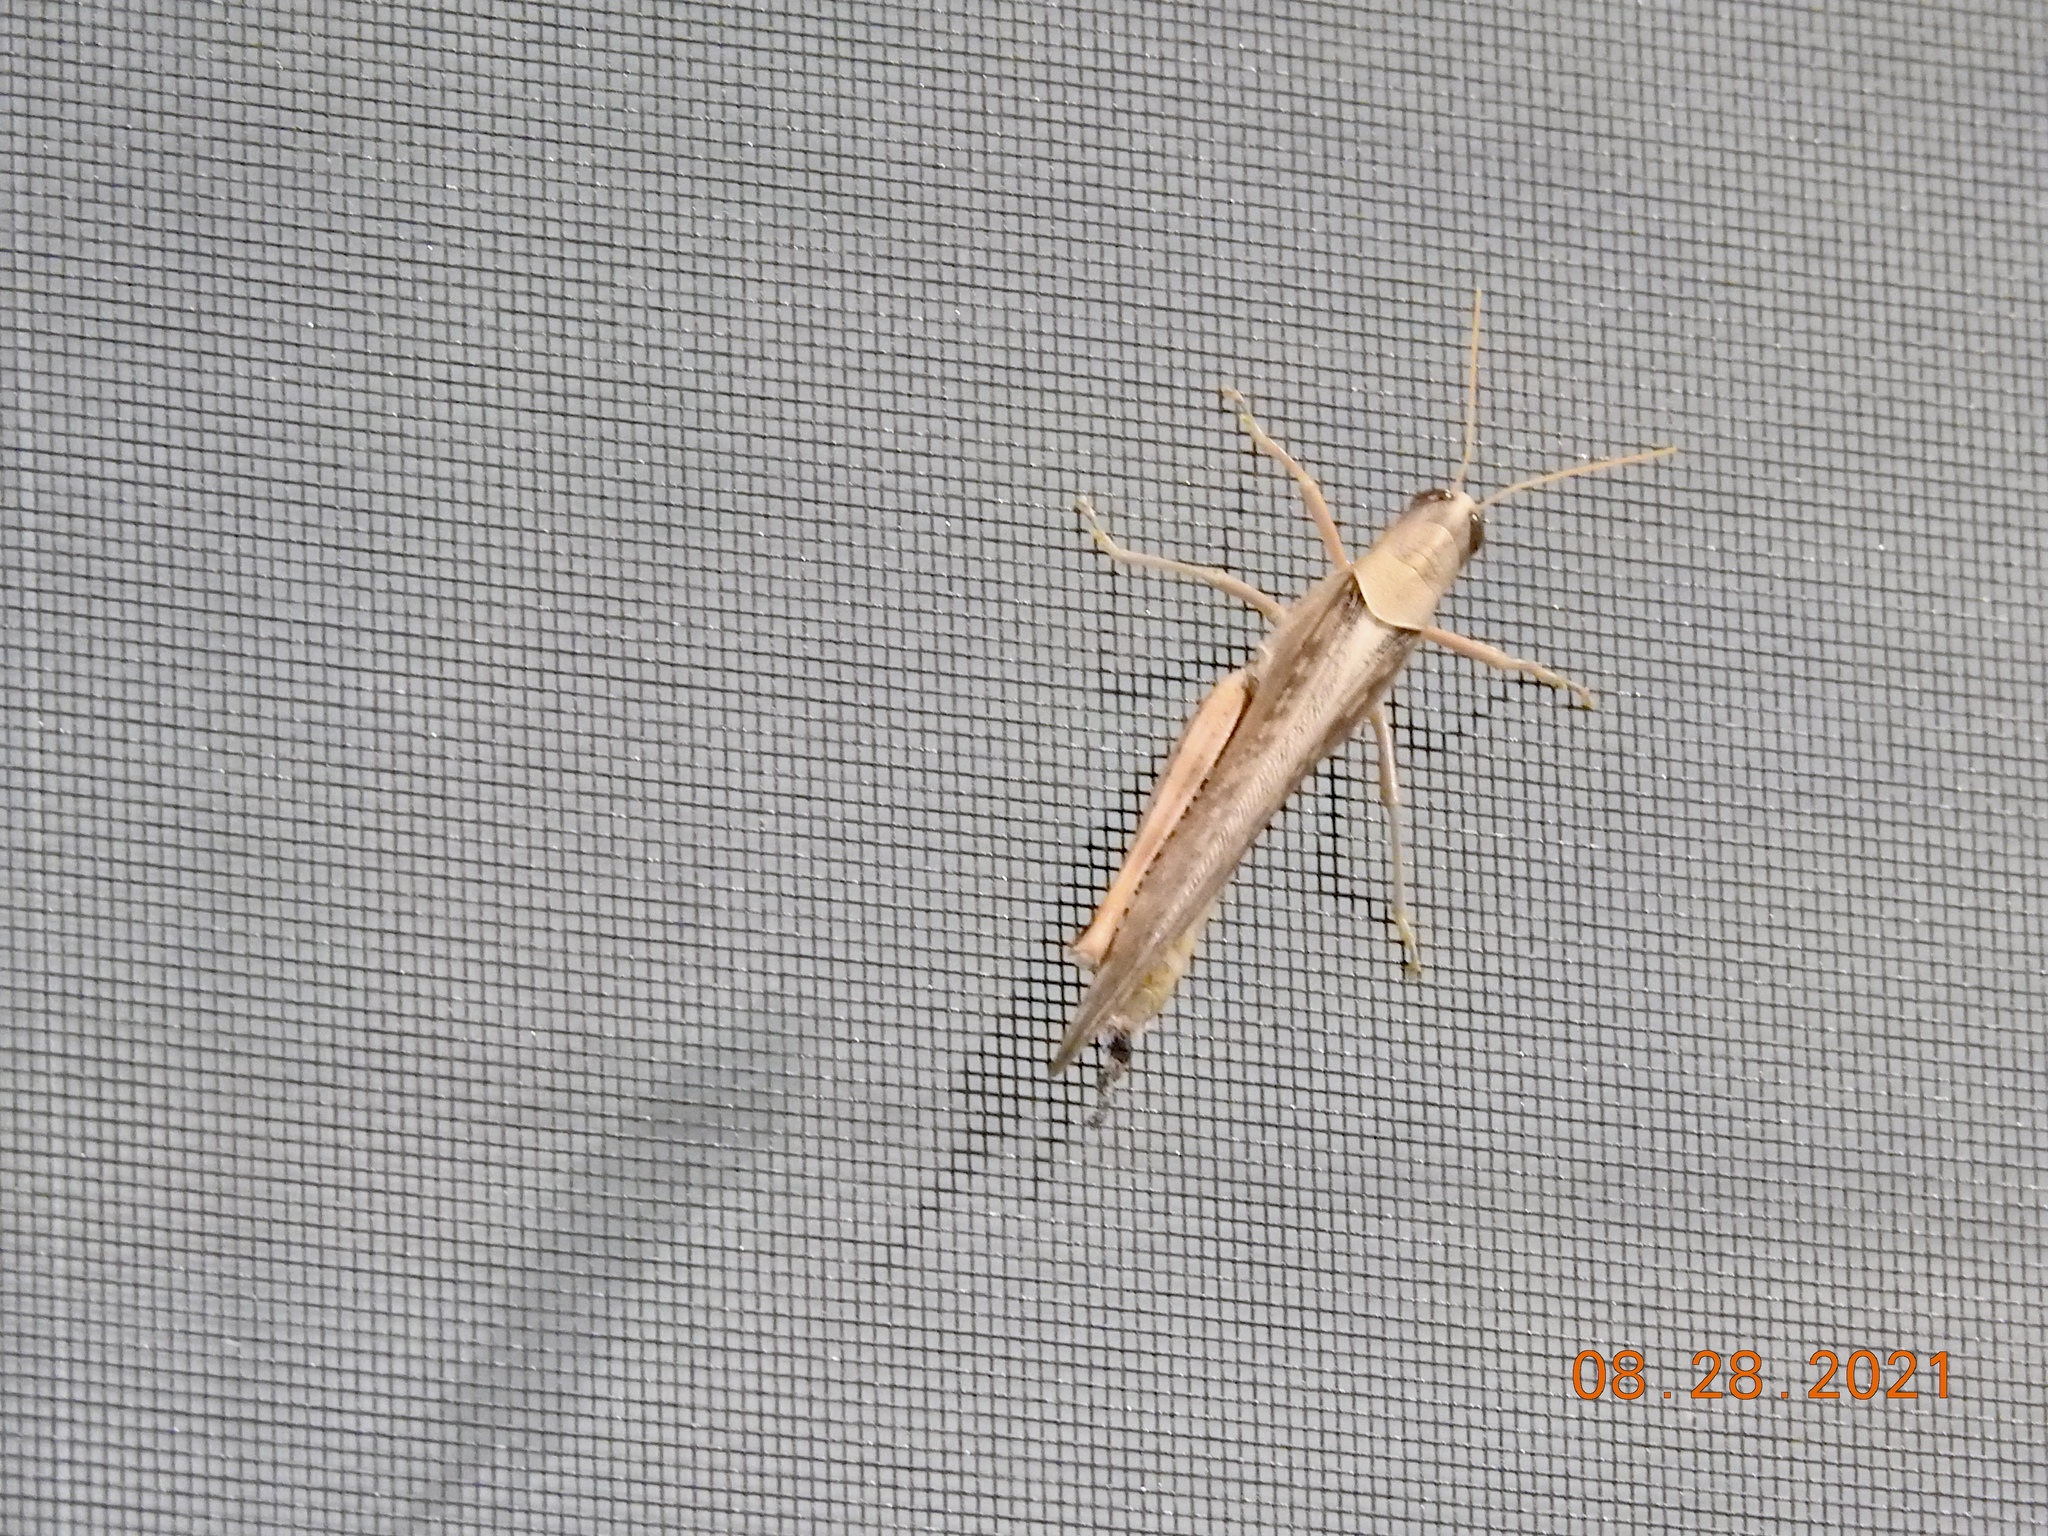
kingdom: Animalia
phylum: Arthropoda
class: Insecta
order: Orthoptera
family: Acrididae
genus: Schistocerca
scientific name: Schistocerca nitens
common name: Vagrant grasshopper
